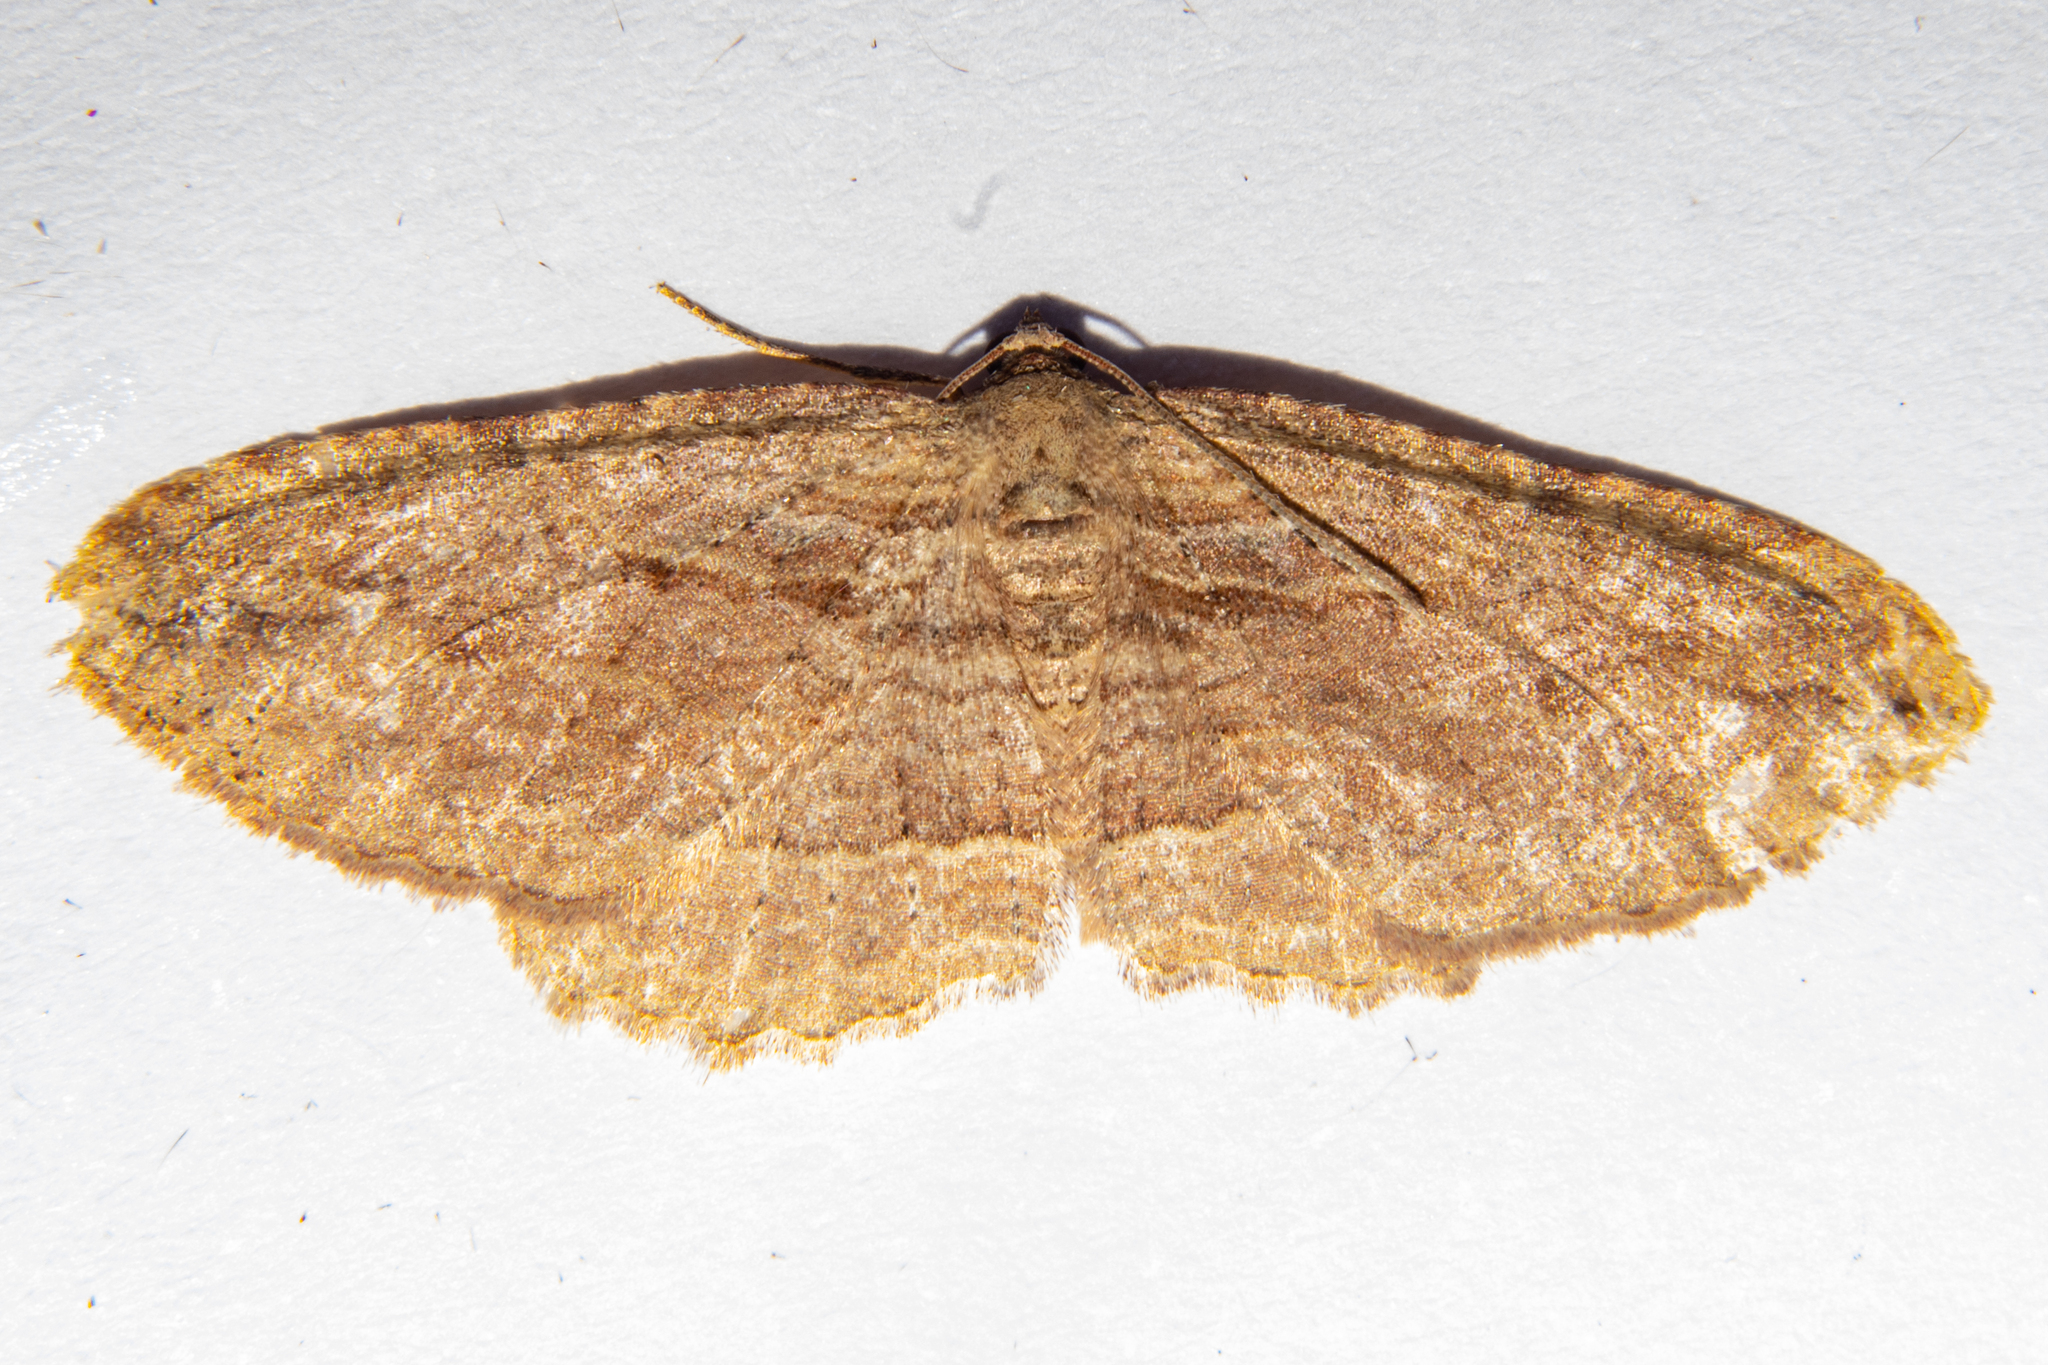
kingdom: Animalia
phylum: Arthropoda
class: Insecta
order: Lepidoptera
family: Geometridae
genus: Austrocidaria
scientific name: Austrocidaria gobiata
